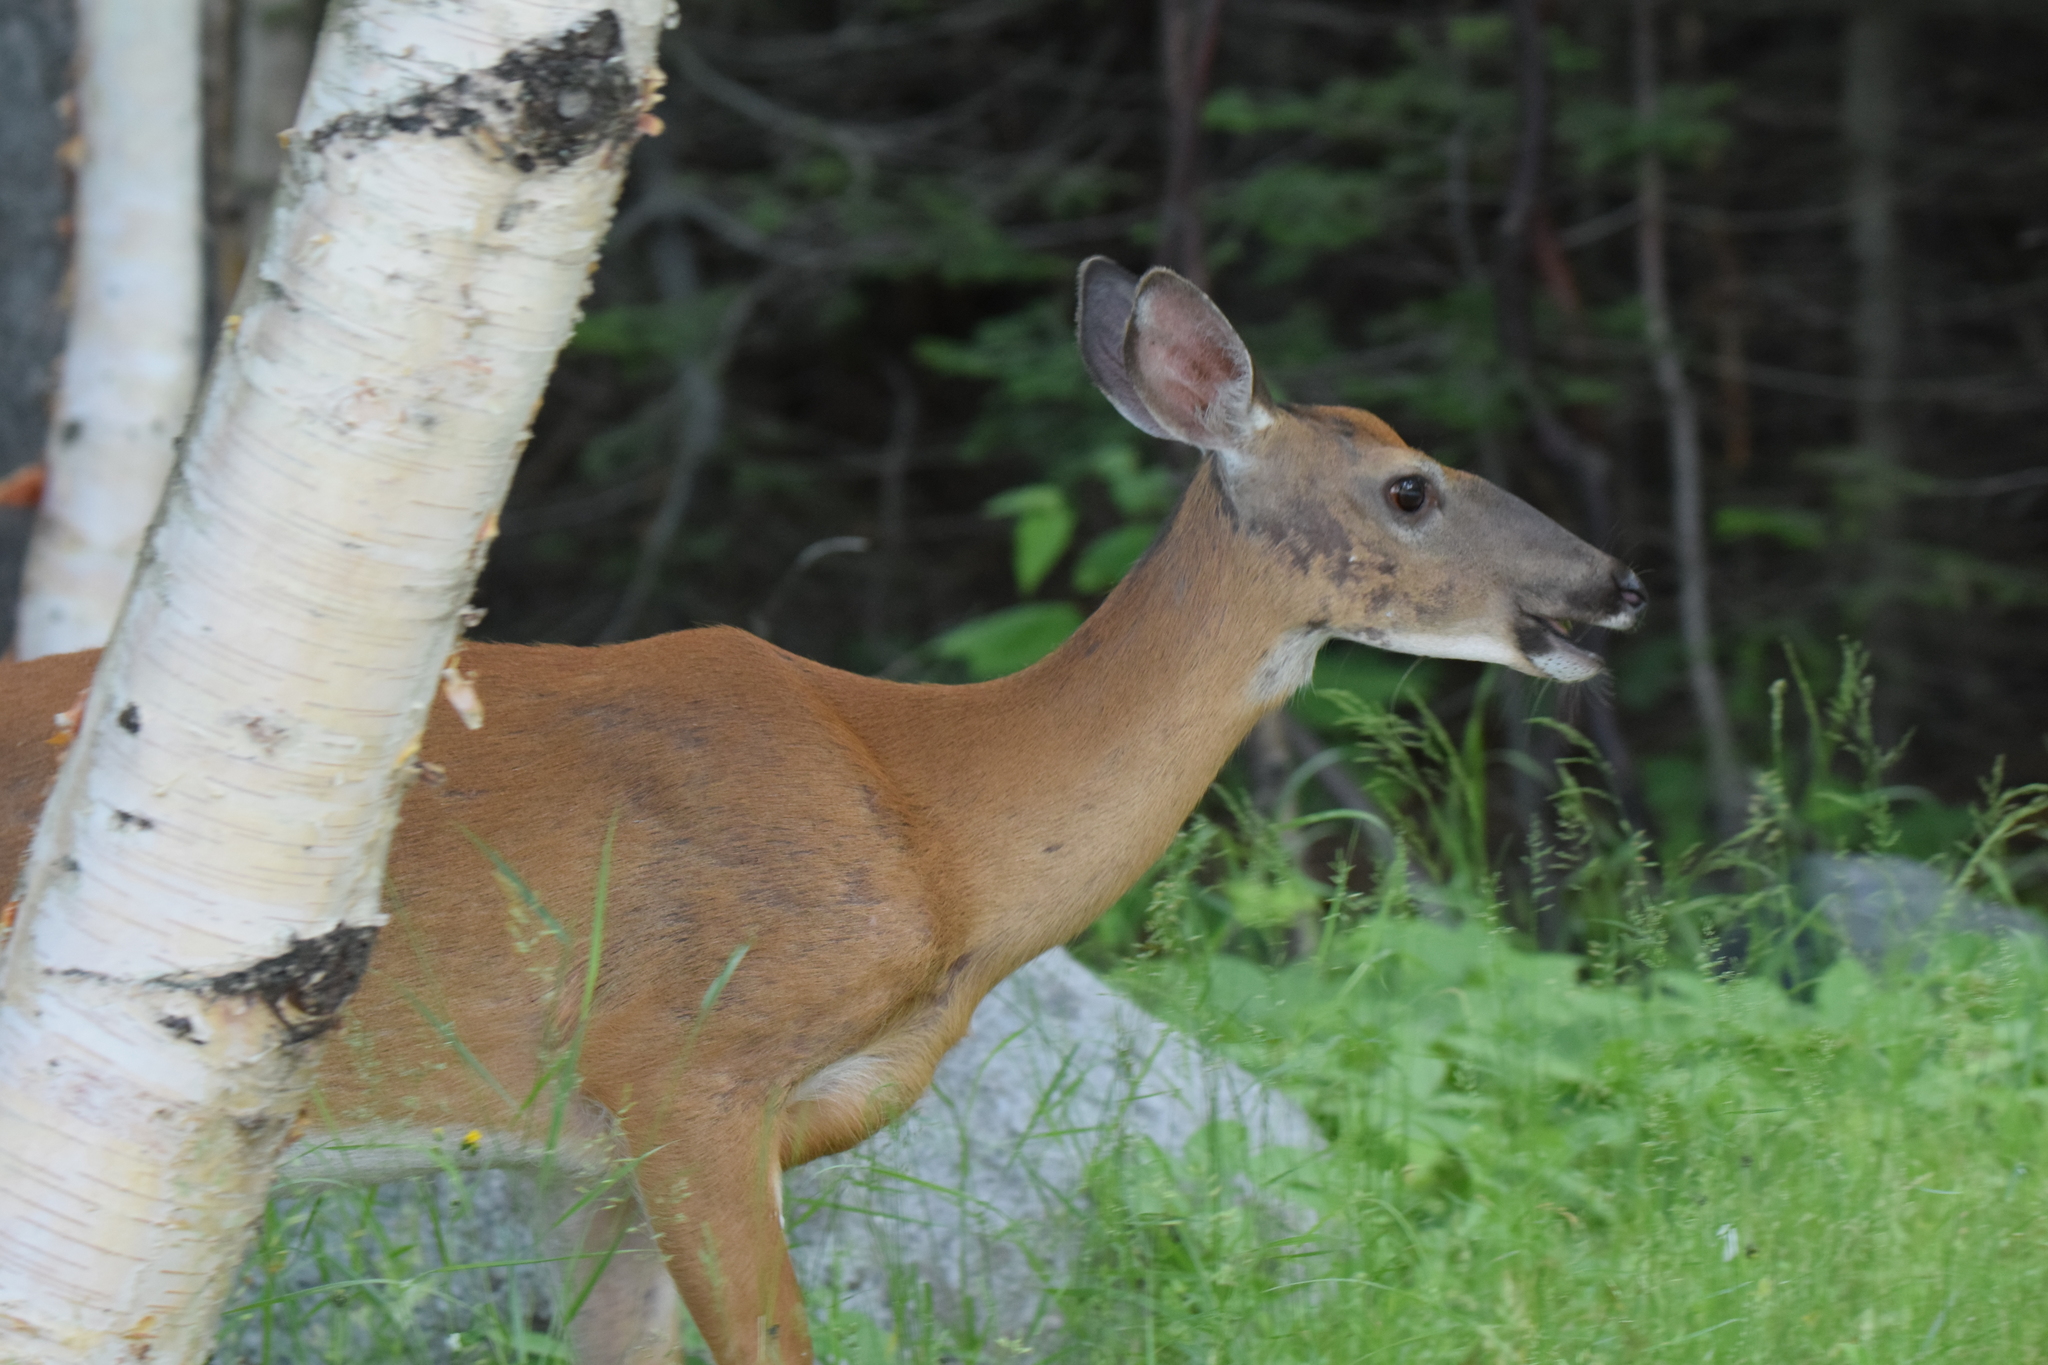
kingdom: Animalia
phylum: Chordata
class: Mammalia
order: Artiodactyla
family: Cervidae
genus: Odocoileus
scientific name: Odocoileus virginianus
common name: White-tailed deer
